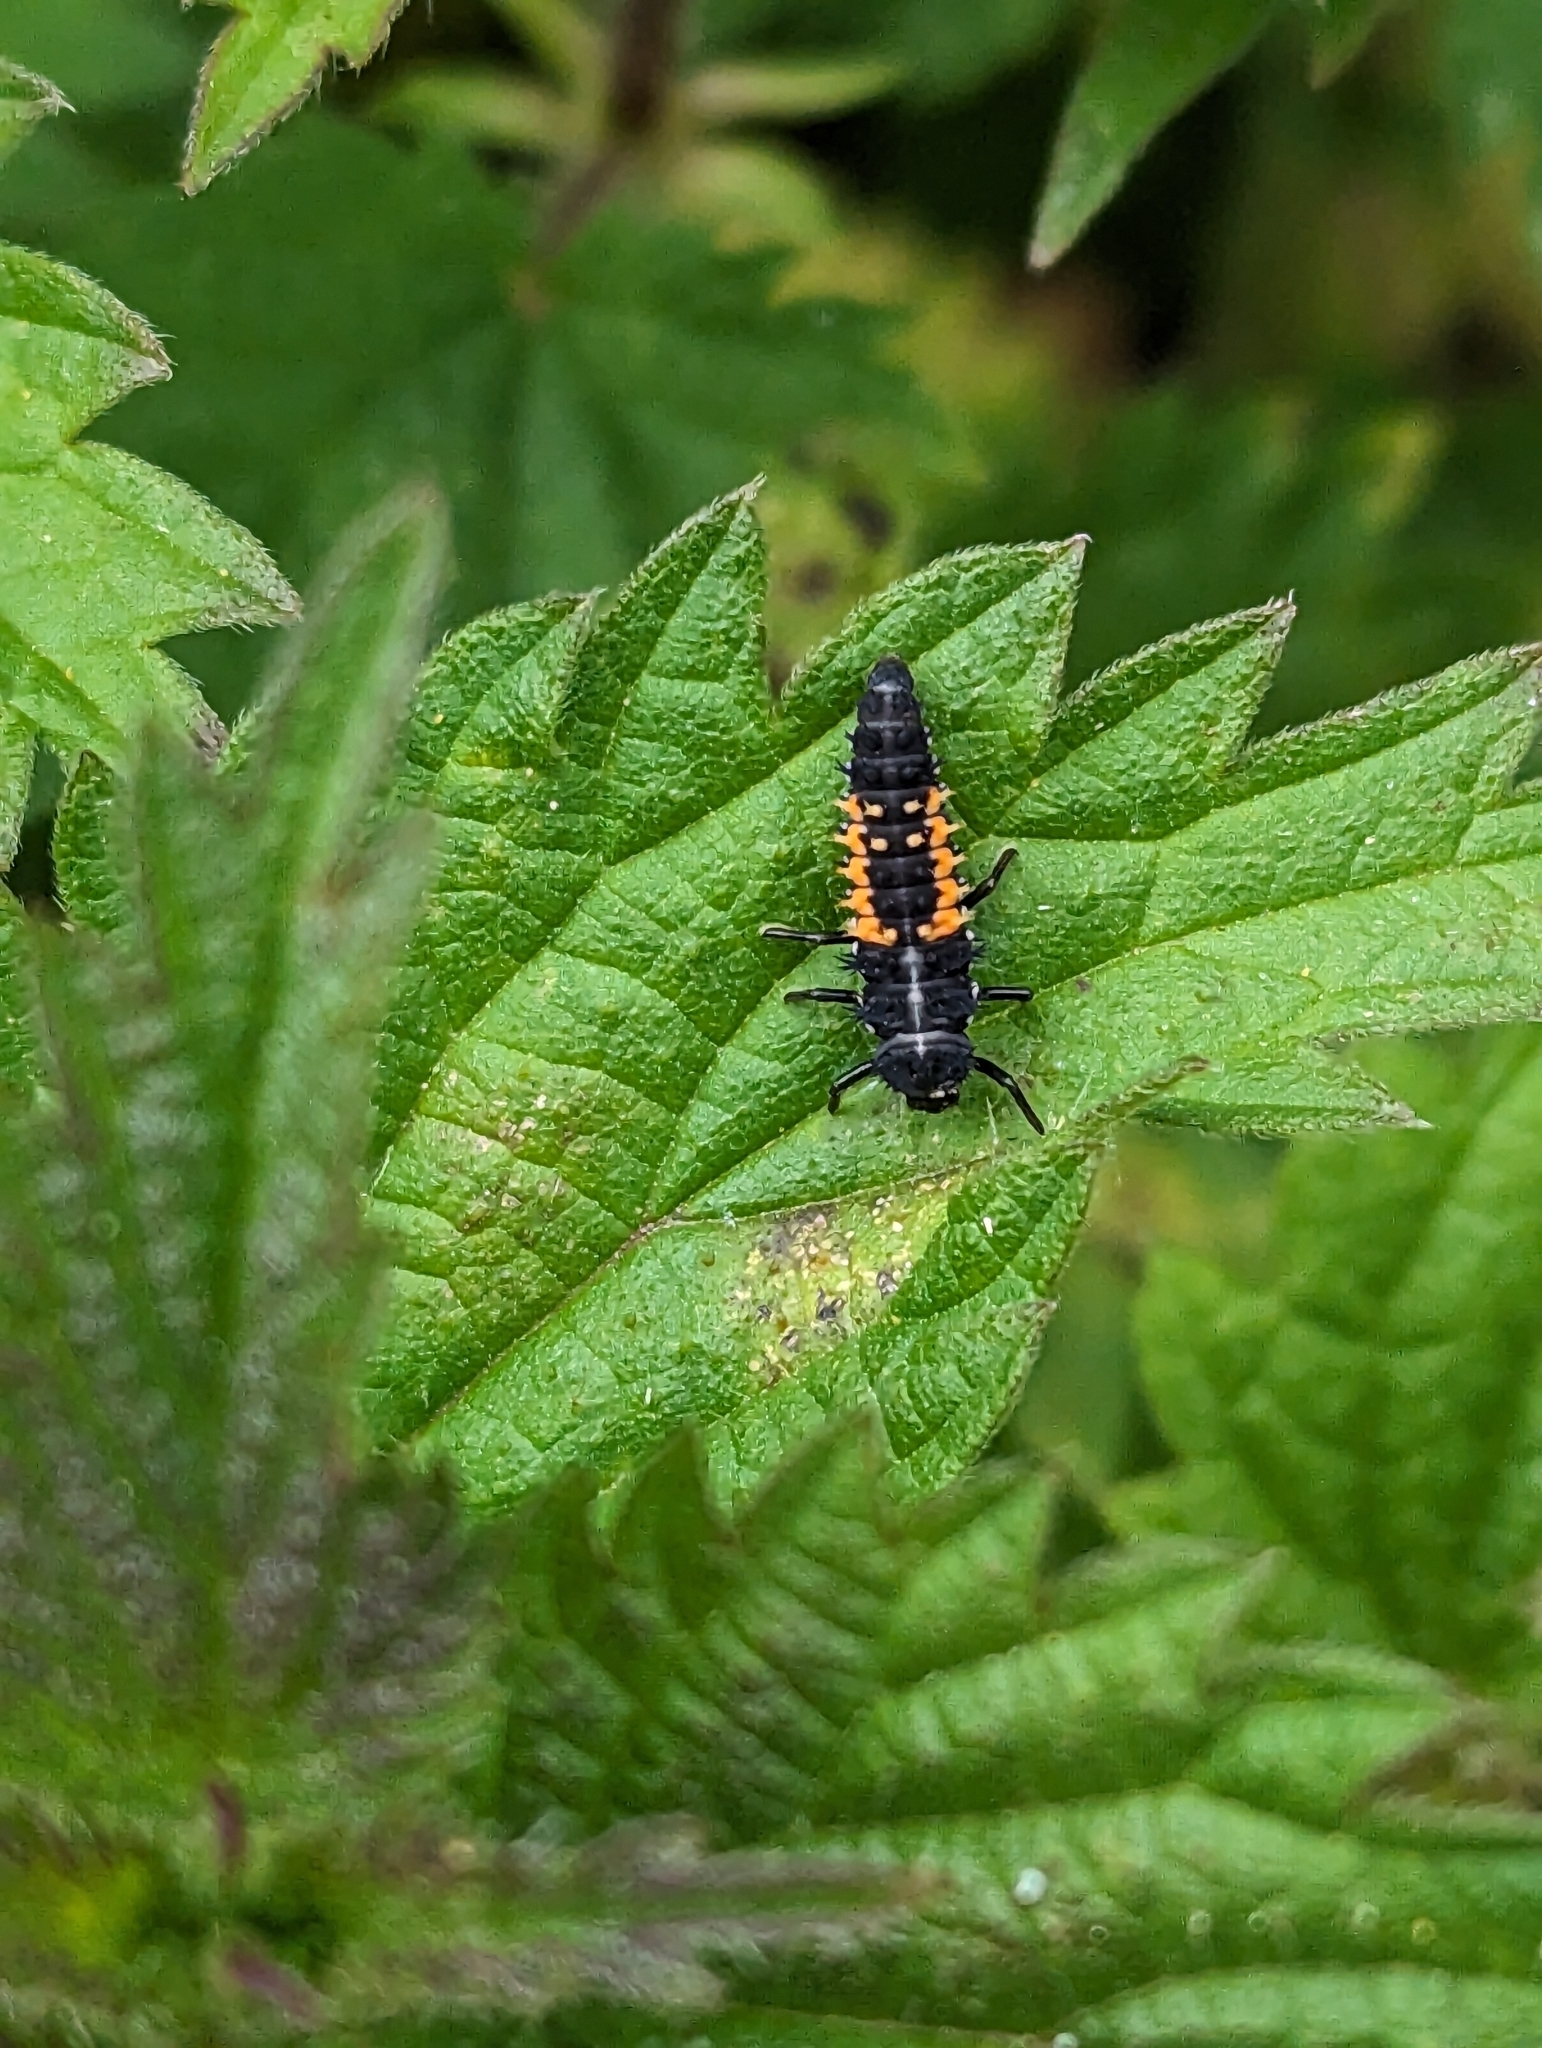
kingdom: Animalia
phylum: Arthropoda
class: Insecta
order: Coleoptera
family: Coccinellidae
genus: Harmonia
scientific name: Harmonia axyridis
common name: Harlequin ladybird
